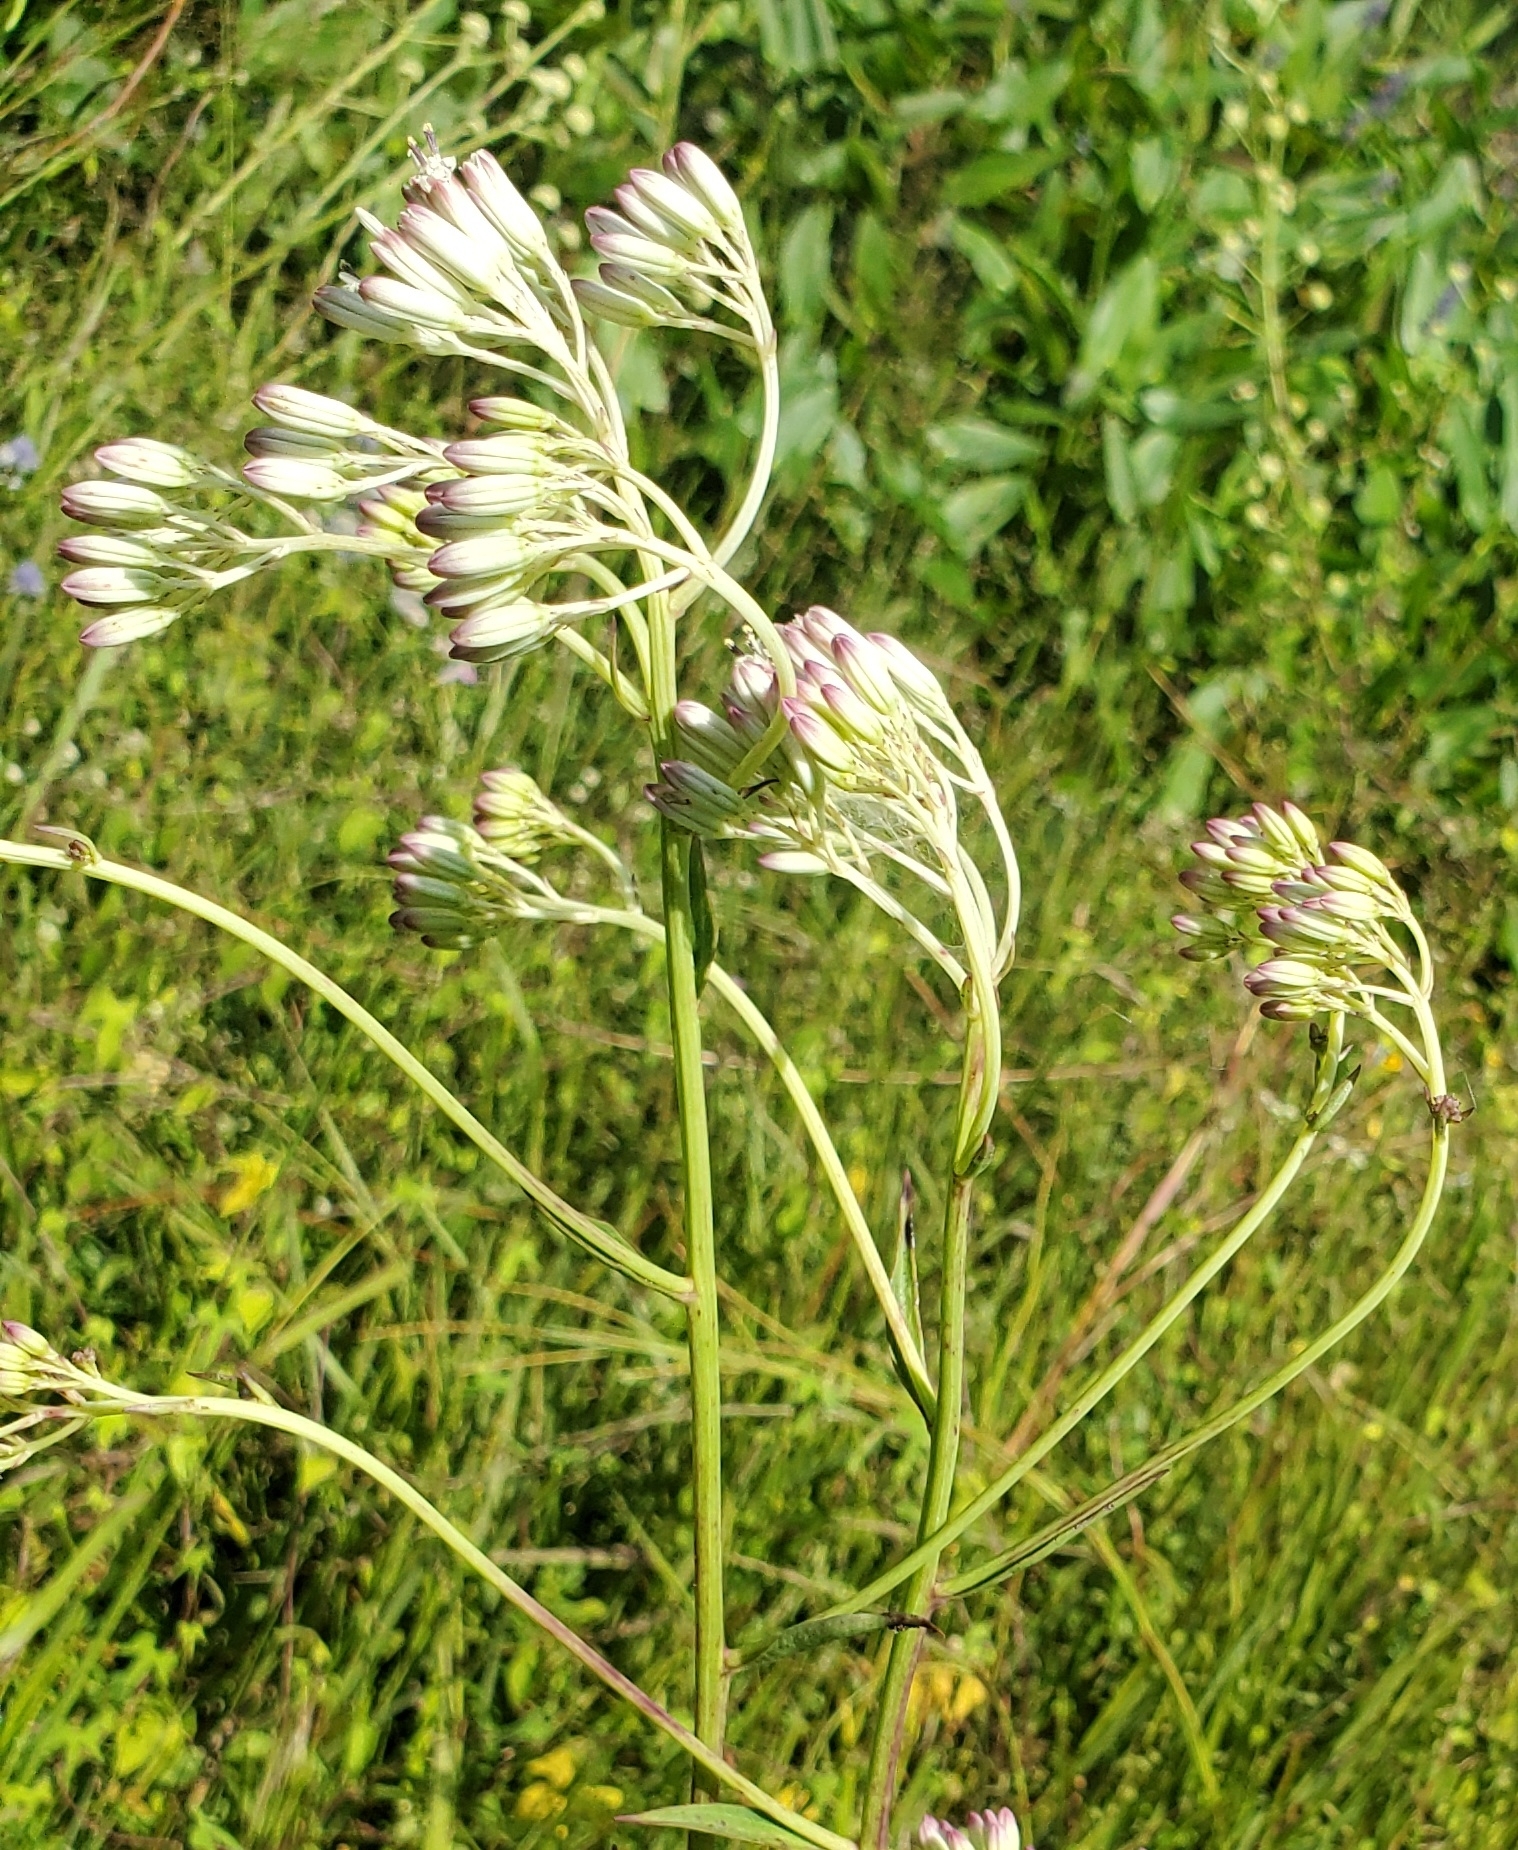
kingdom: Plantae
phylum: Tracheophyta
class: Magnoliopsida
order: Asterales
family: Asteraceae
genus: Arnoglossum
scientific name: Arnoglossum ovatum
